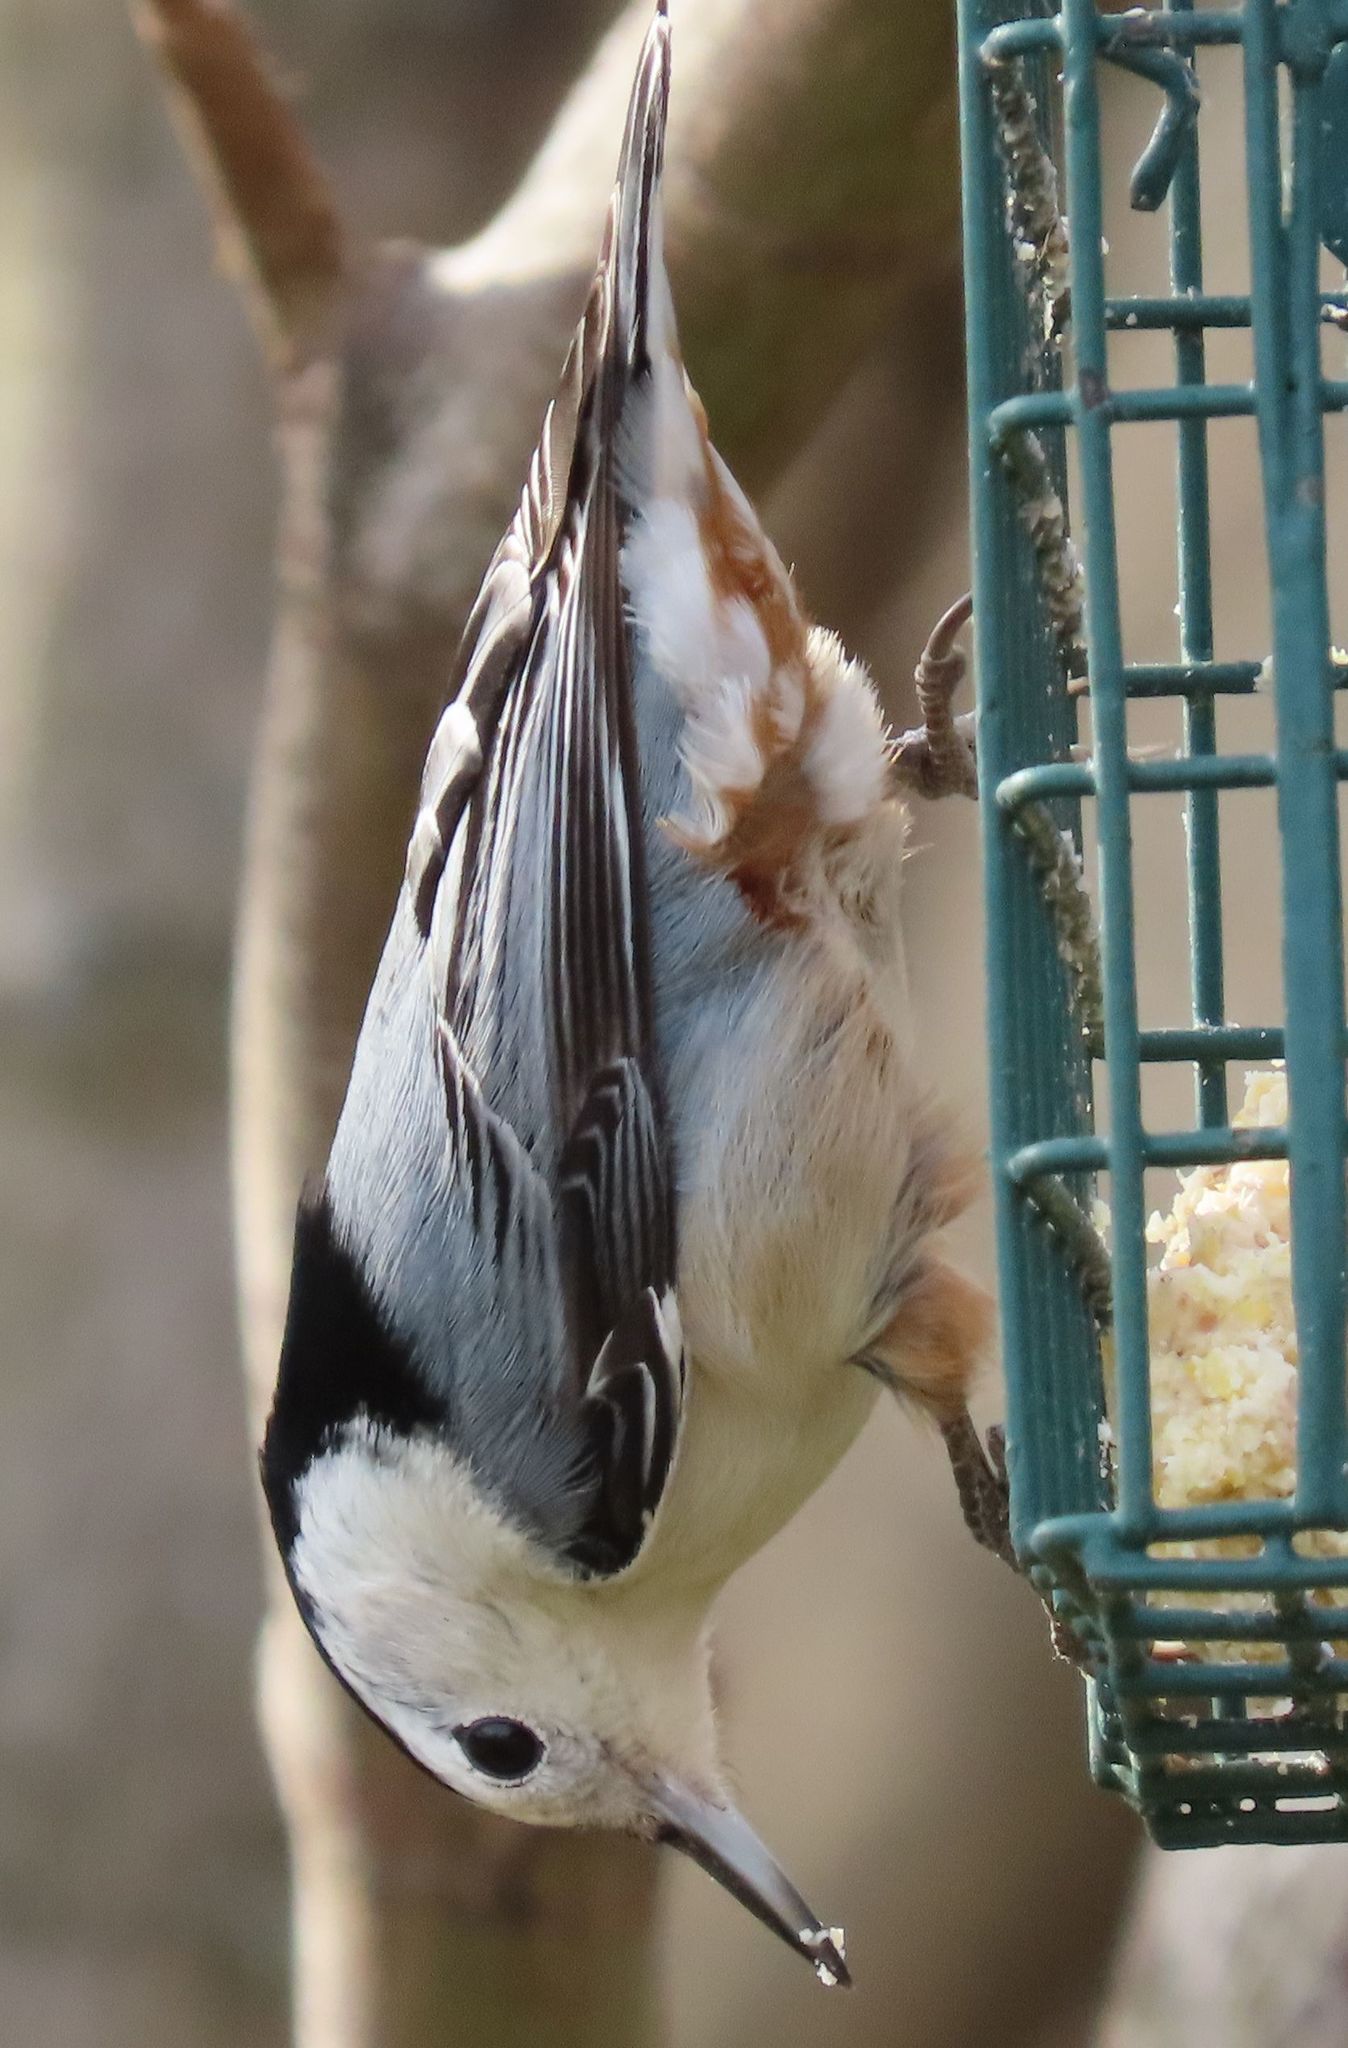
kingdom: Animalia
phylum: Chordata
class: Aves
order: Passeriformes
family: Sittidae
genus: Sitta
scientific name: Sitta carolinensis
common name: White-breasted nuthatch
